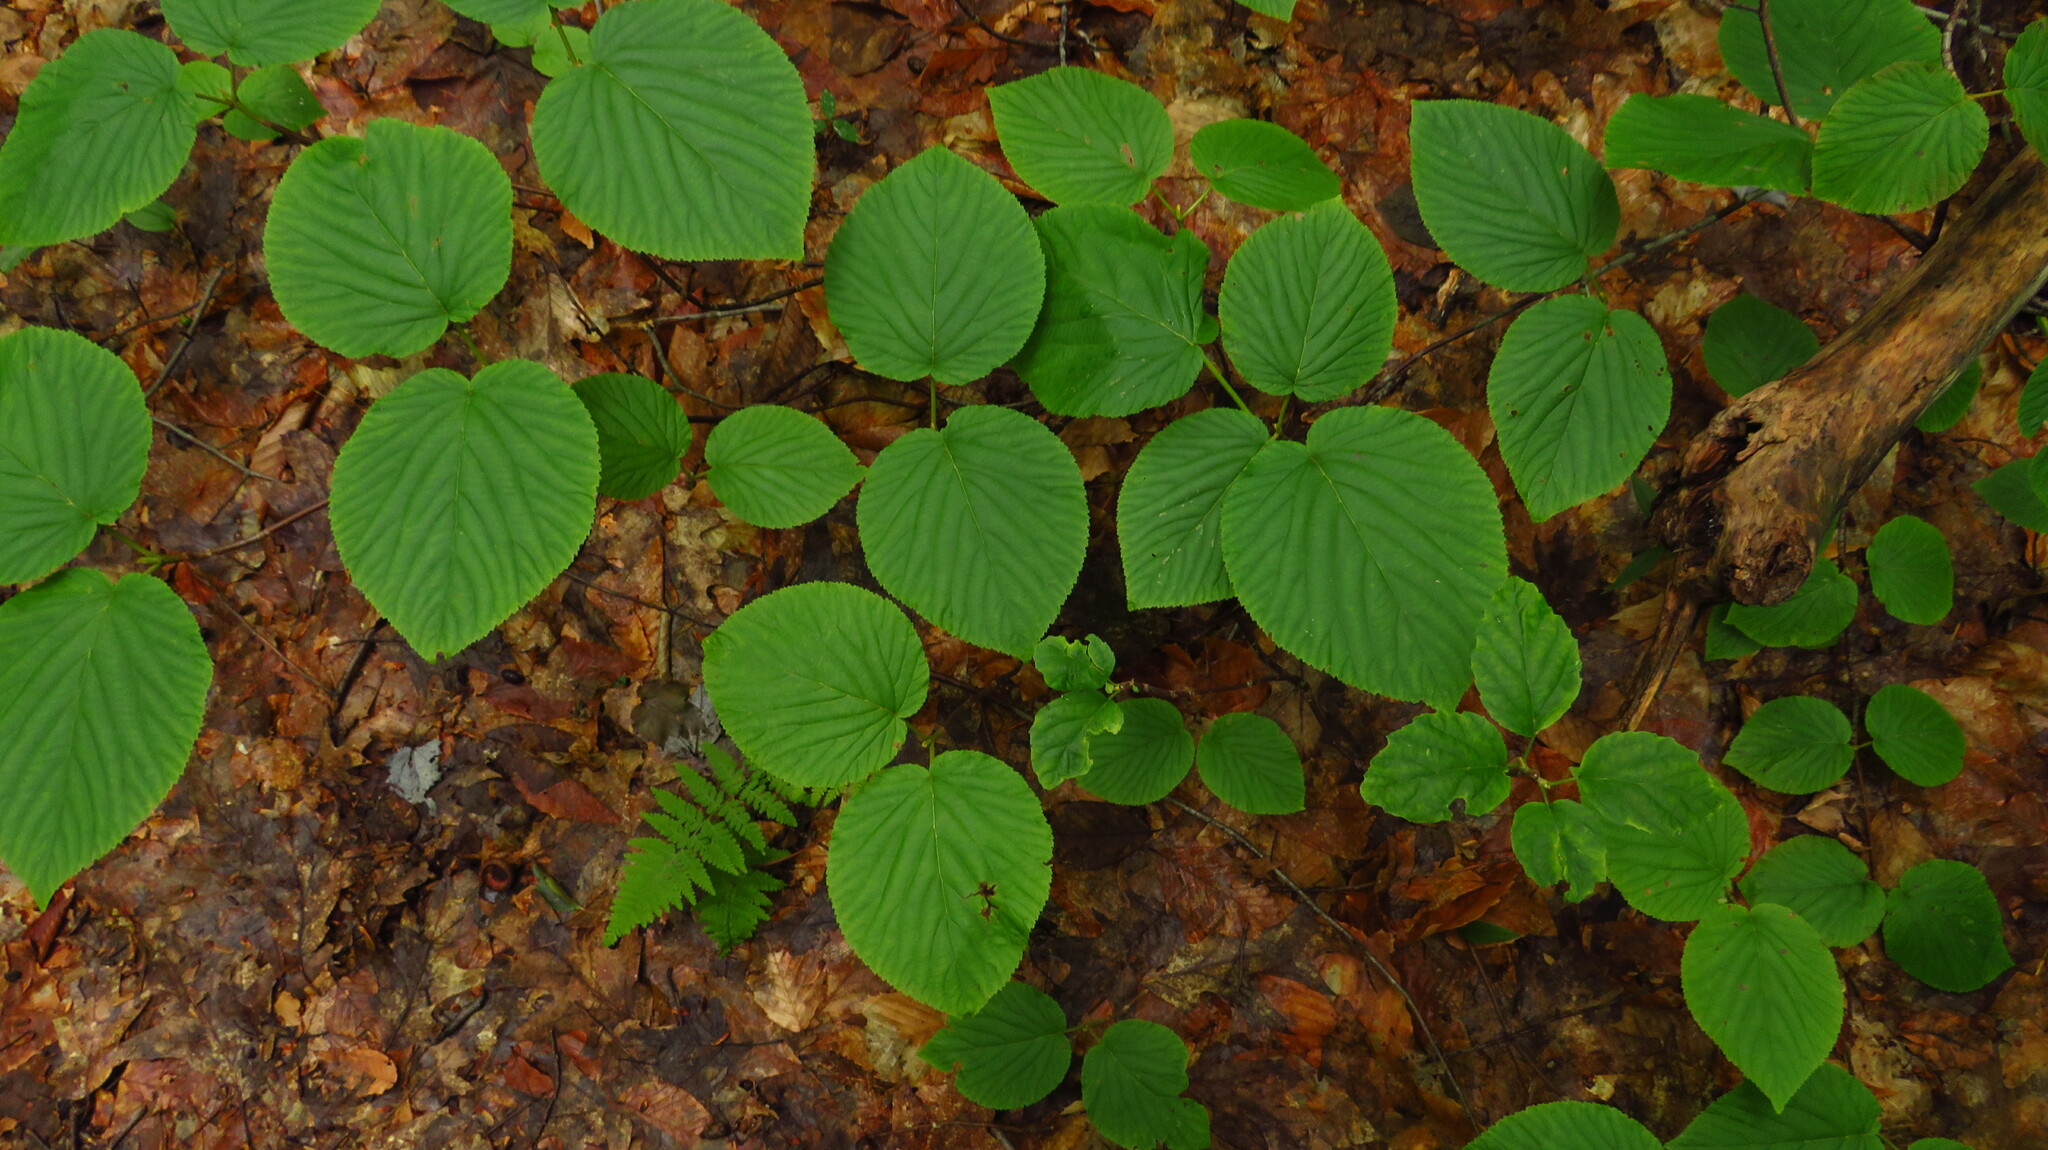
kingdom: Plantae
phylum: Tracheophyta
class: Magnoliopsida
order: Dipsacales
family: Viburnaceae
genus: Viburnum
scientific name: Viburnum lantanoides
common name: Hobblebush
